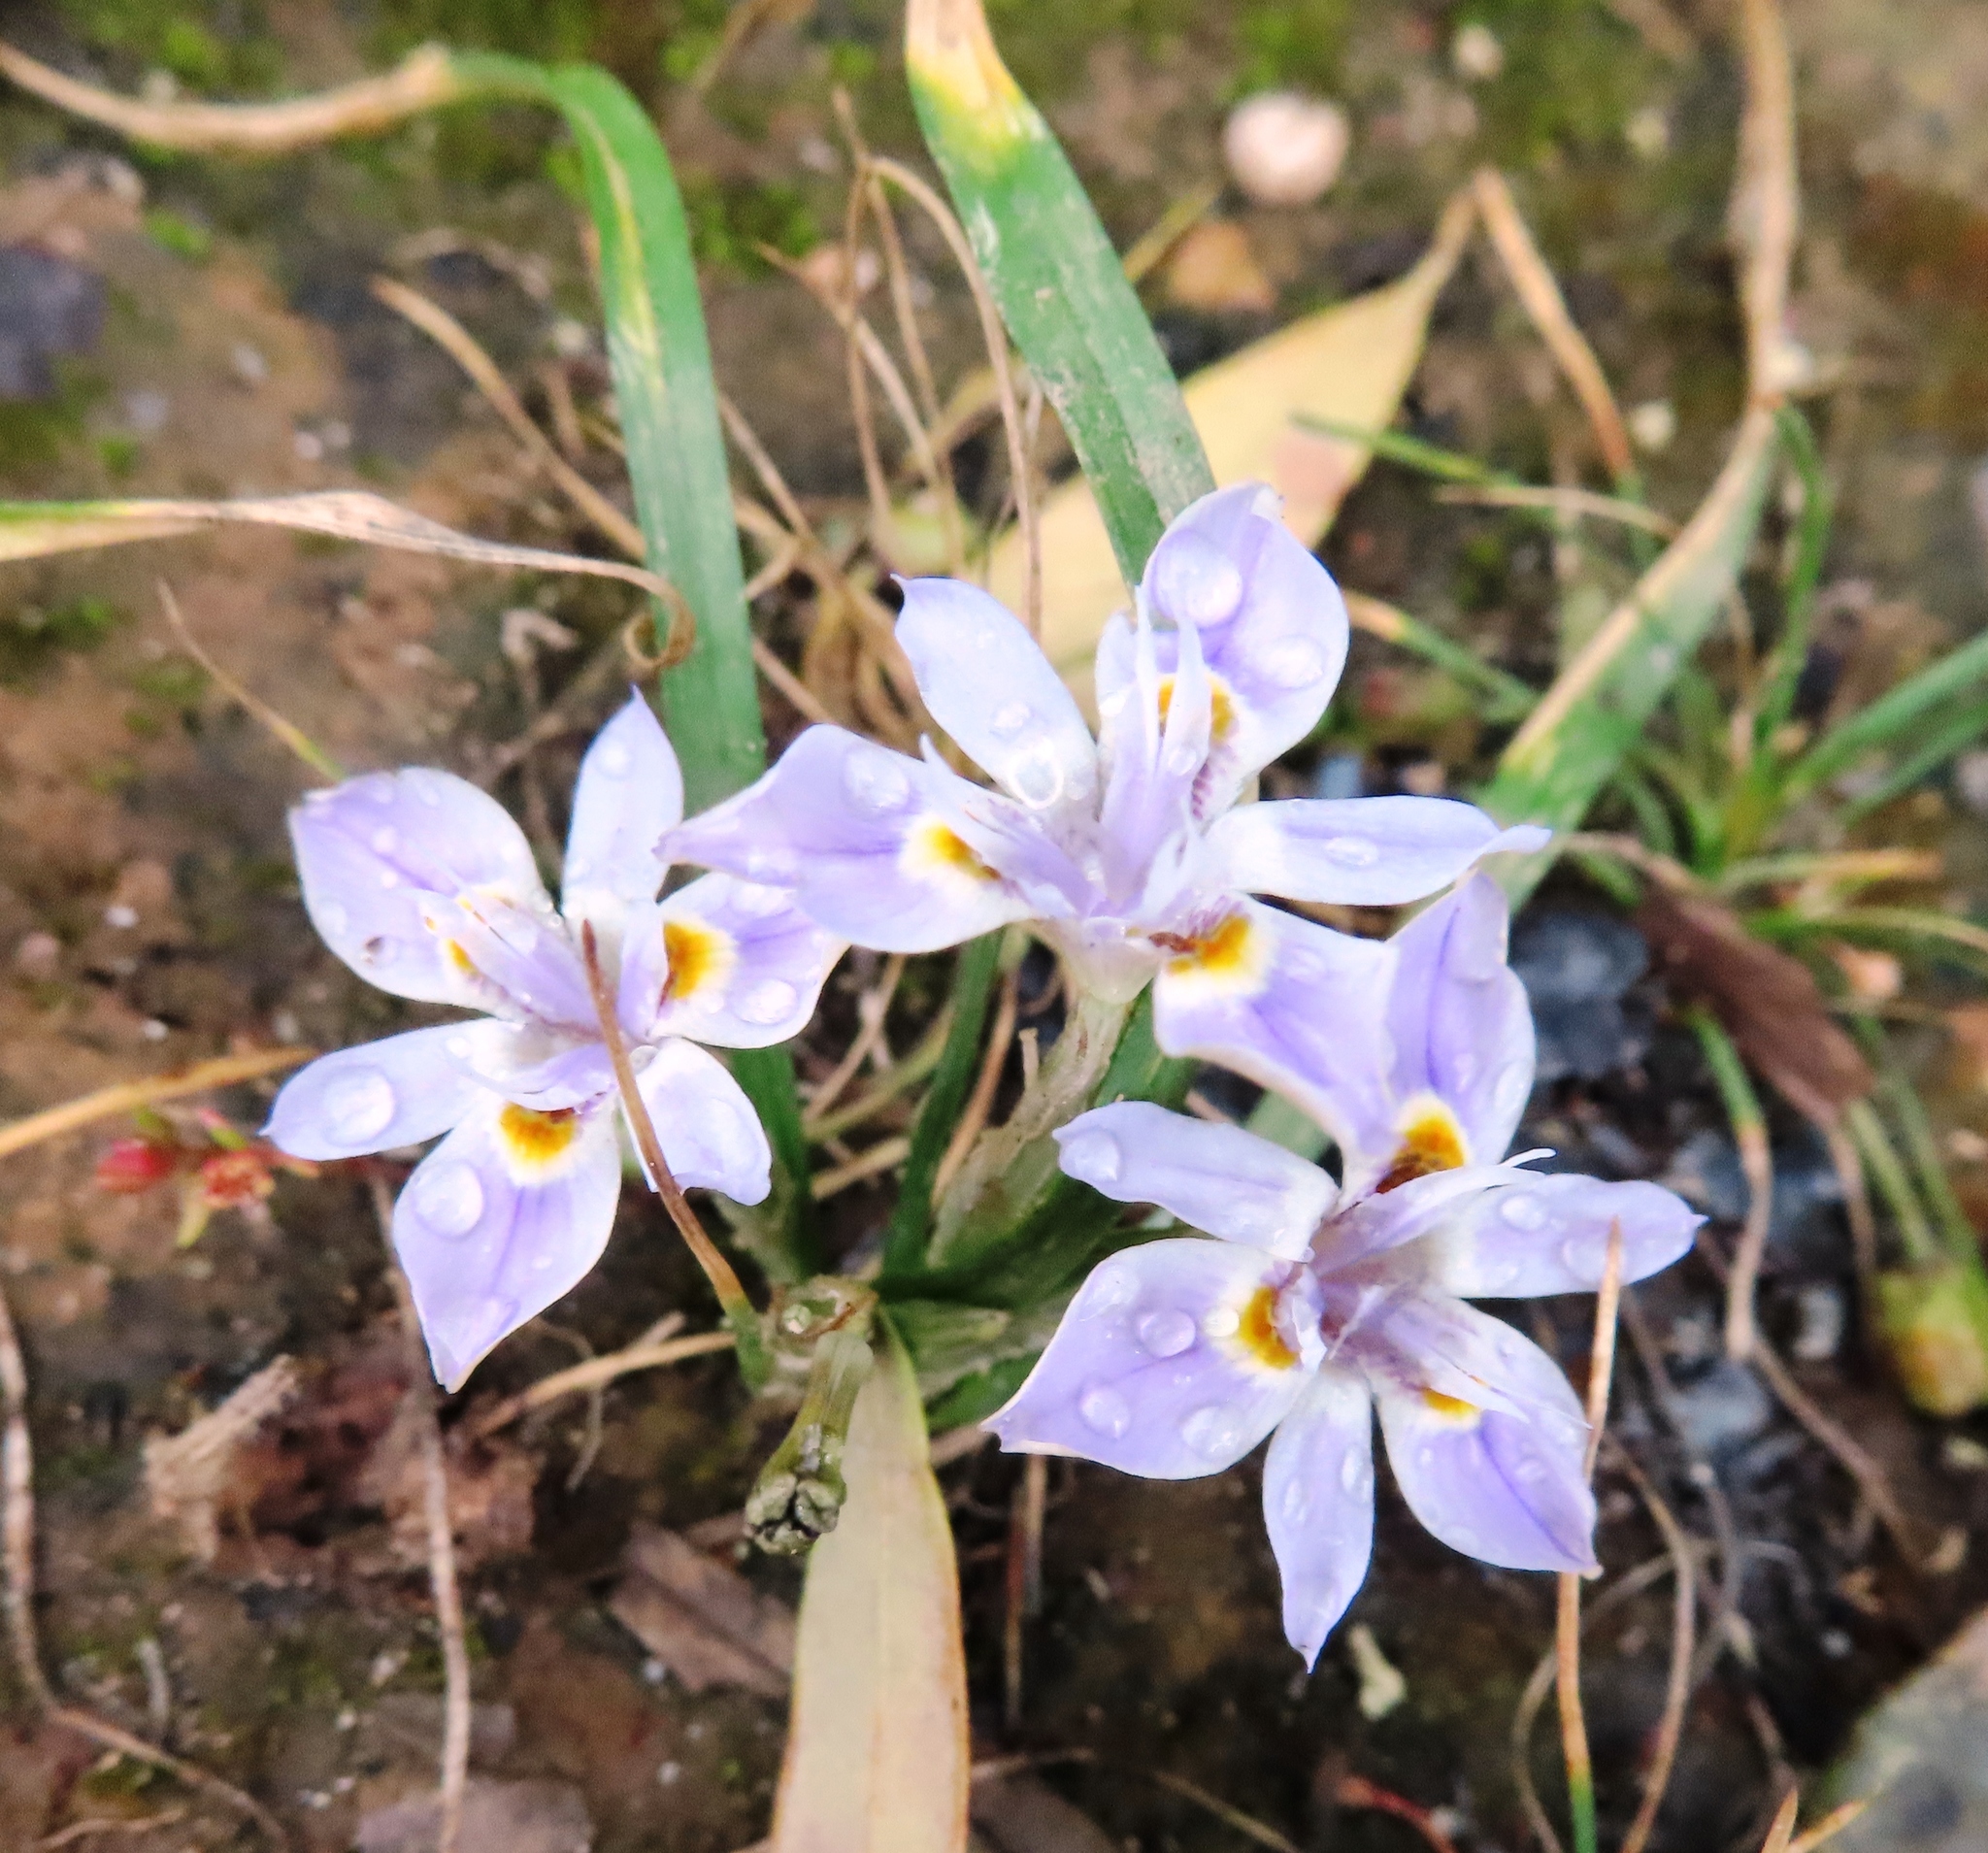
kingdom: Plantae
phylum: Tracheophyta
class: Liliopsida
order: Asparagales
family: Iridaceae
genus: Moraea
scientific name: Moraea setifolia
